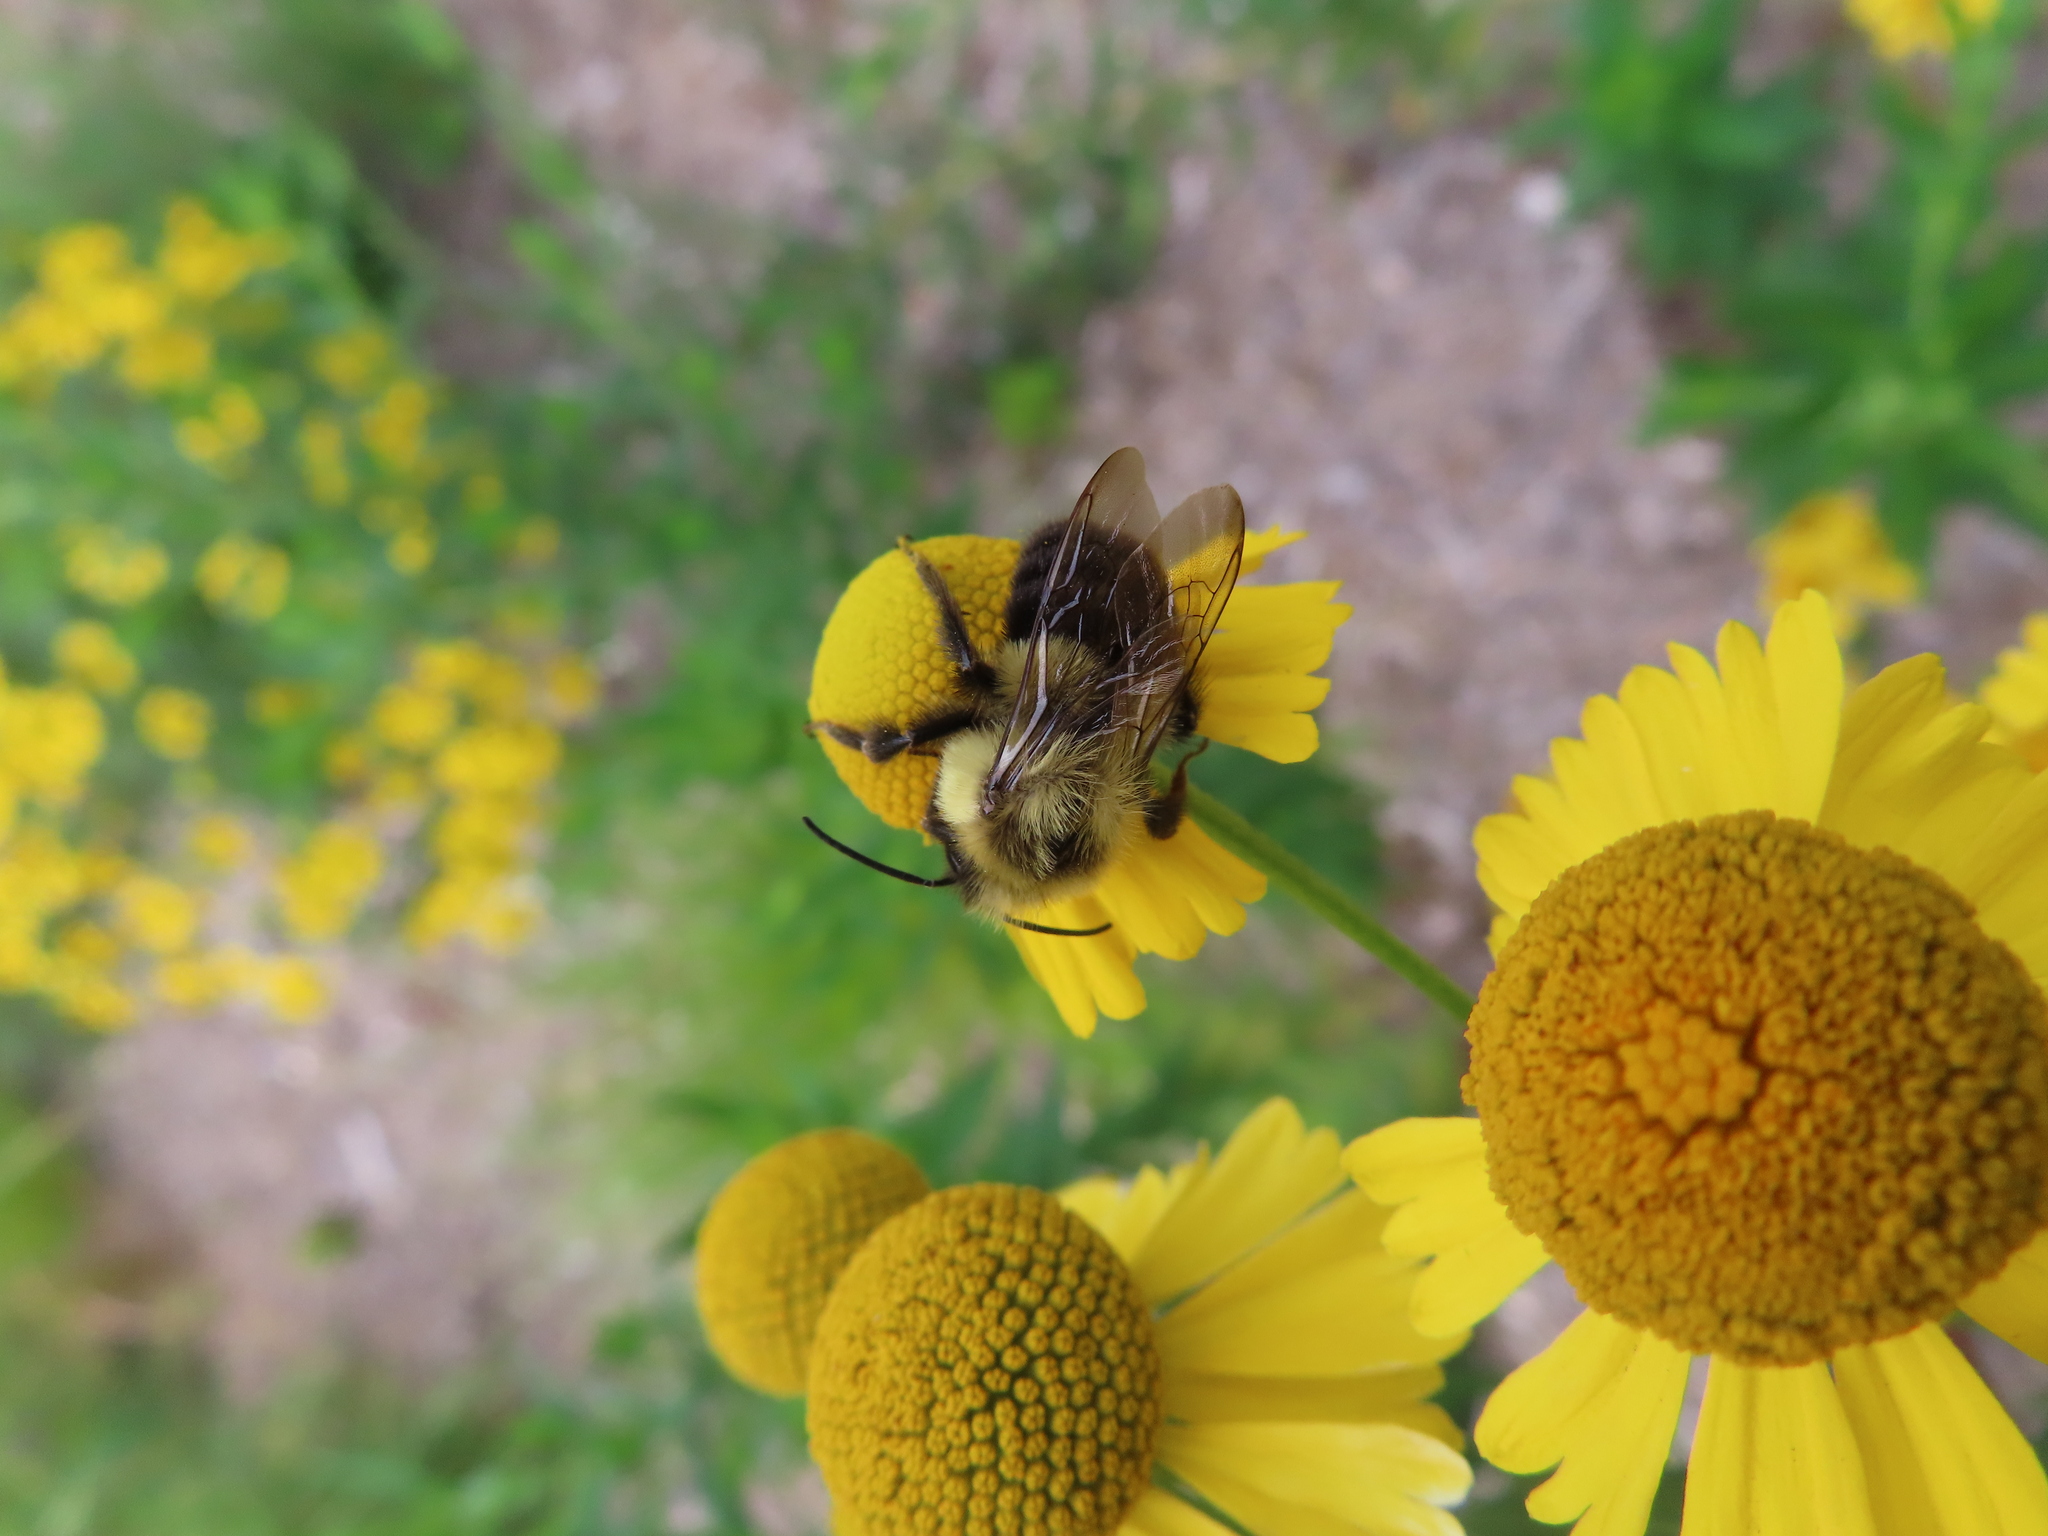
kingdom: Animalia
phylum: Arthropoda
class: Insecta
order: Hymenoptera
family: Apidae
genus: Bombus
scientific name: Bombus impatiens
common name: Common eastern bumble bee
